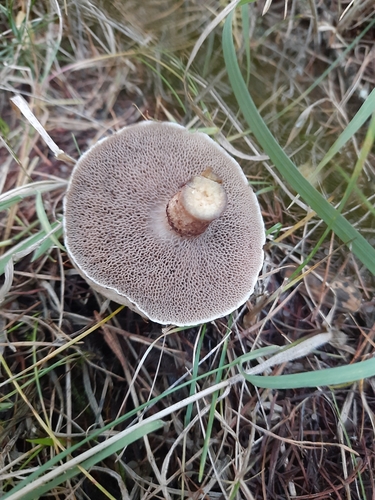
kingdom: Fungi
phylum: Basidiomycota
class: Agaricomycetes
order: Boletales
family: Suillaceae
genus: Suillus
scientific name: Suillus viscidus
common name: Sticky bolete
